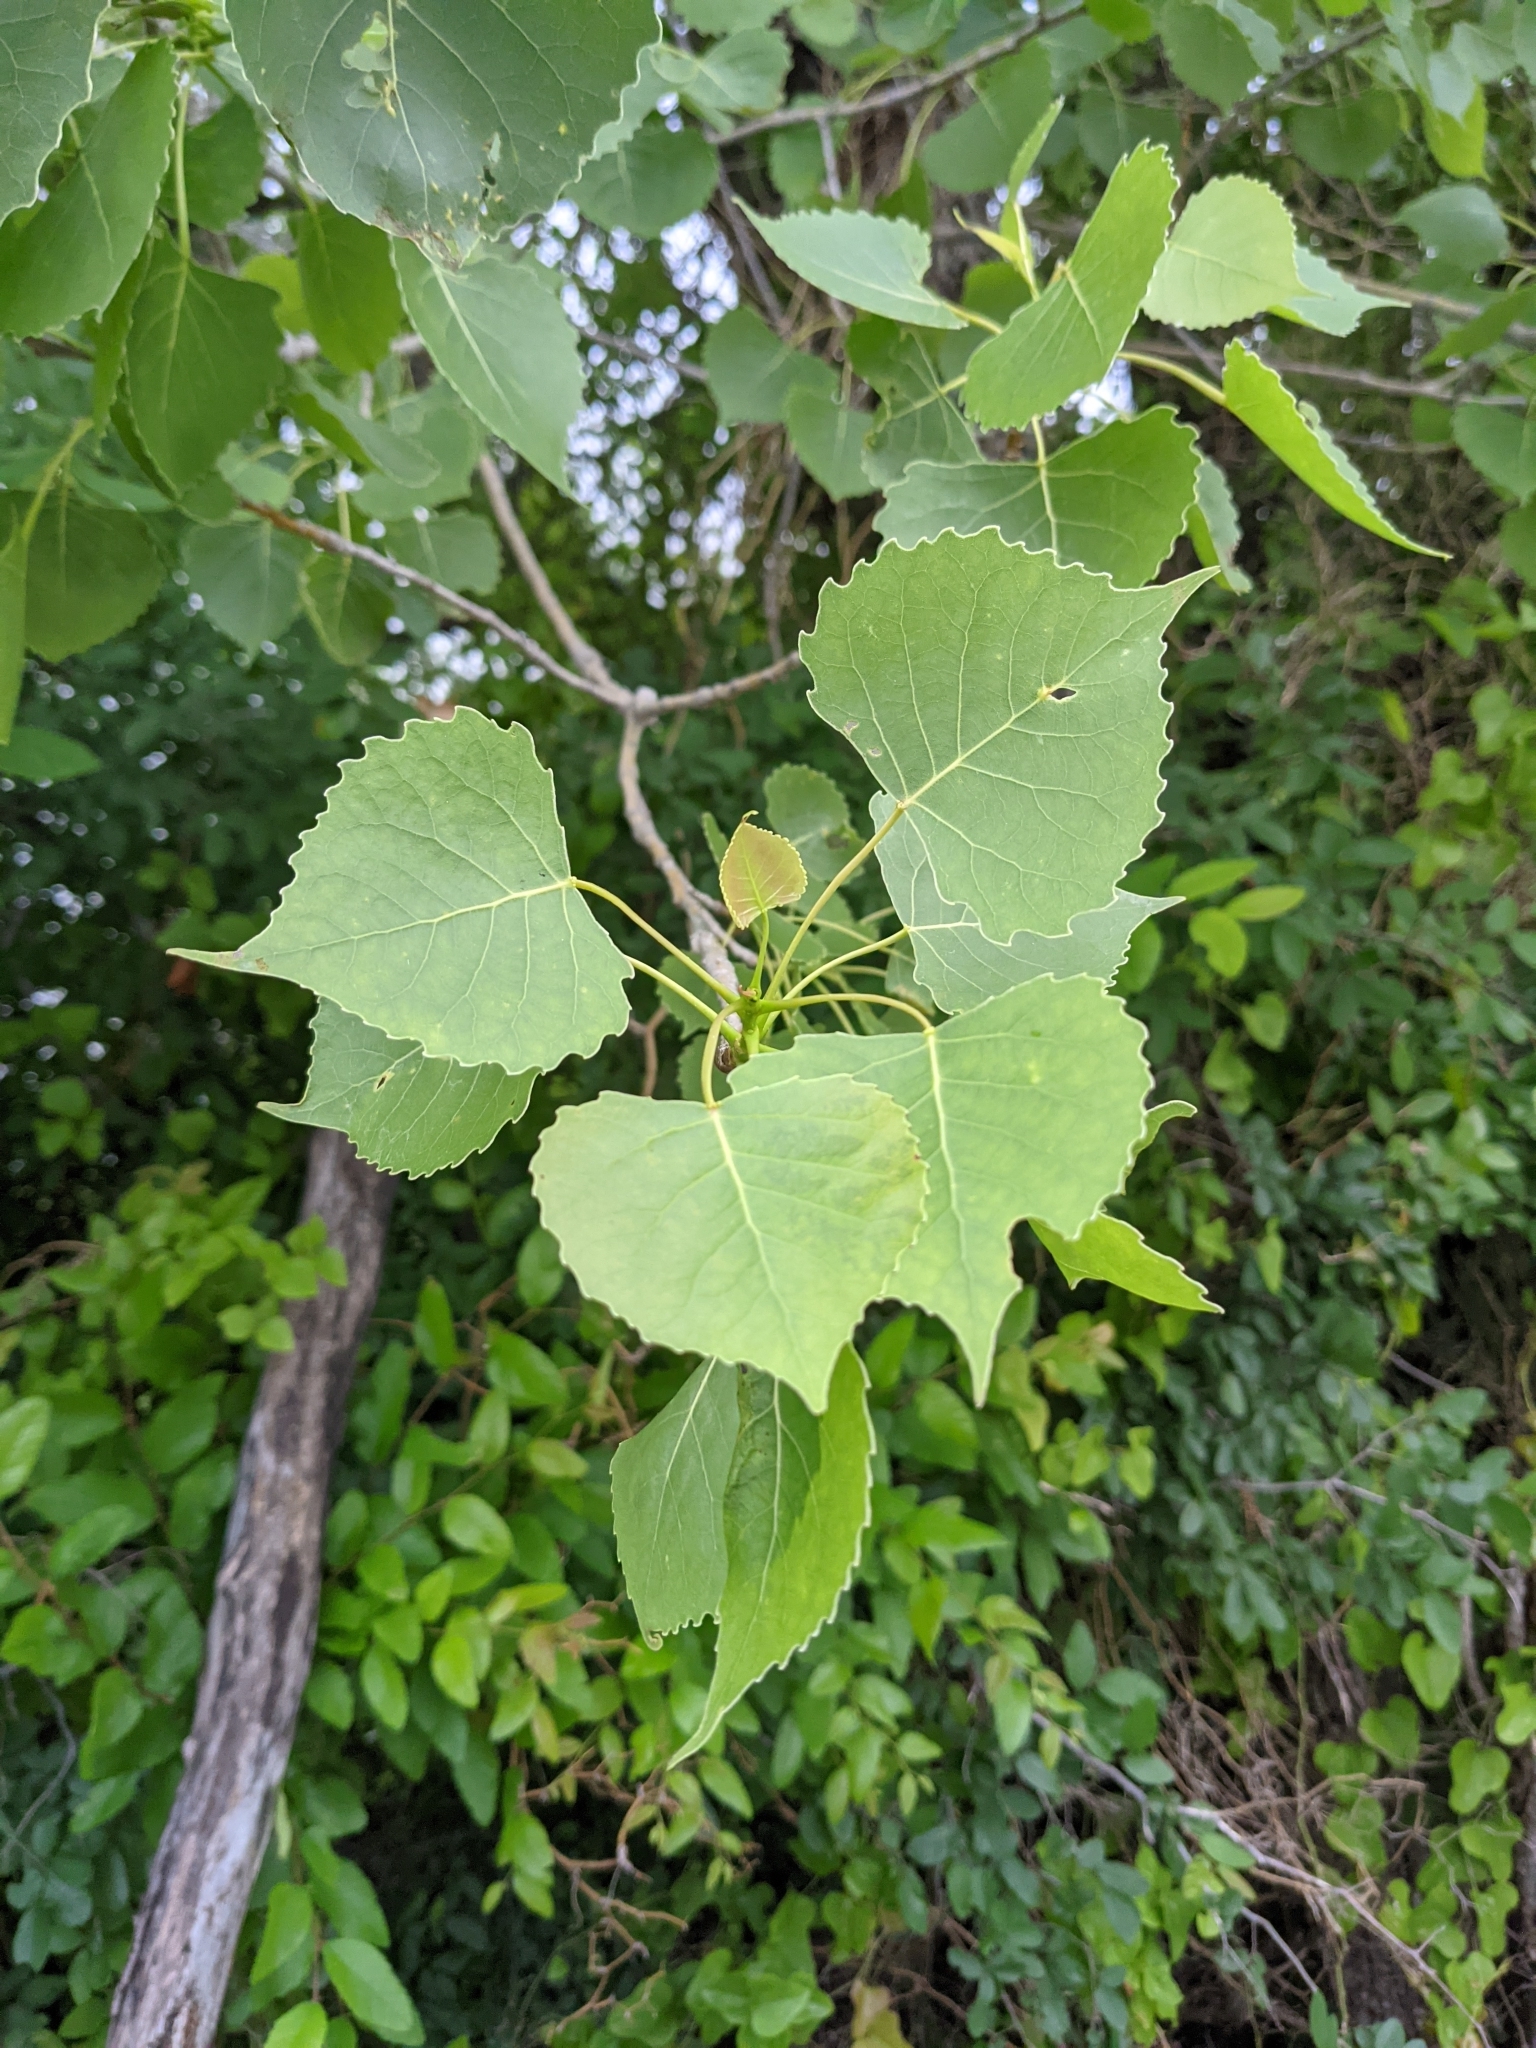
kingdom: Plantae
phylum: Tracheophyta
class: Magnoliopsida
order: Malpighiales
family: Salicaceae
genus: Populus
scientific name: Populus deltoides
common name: Eastern cottonwood
